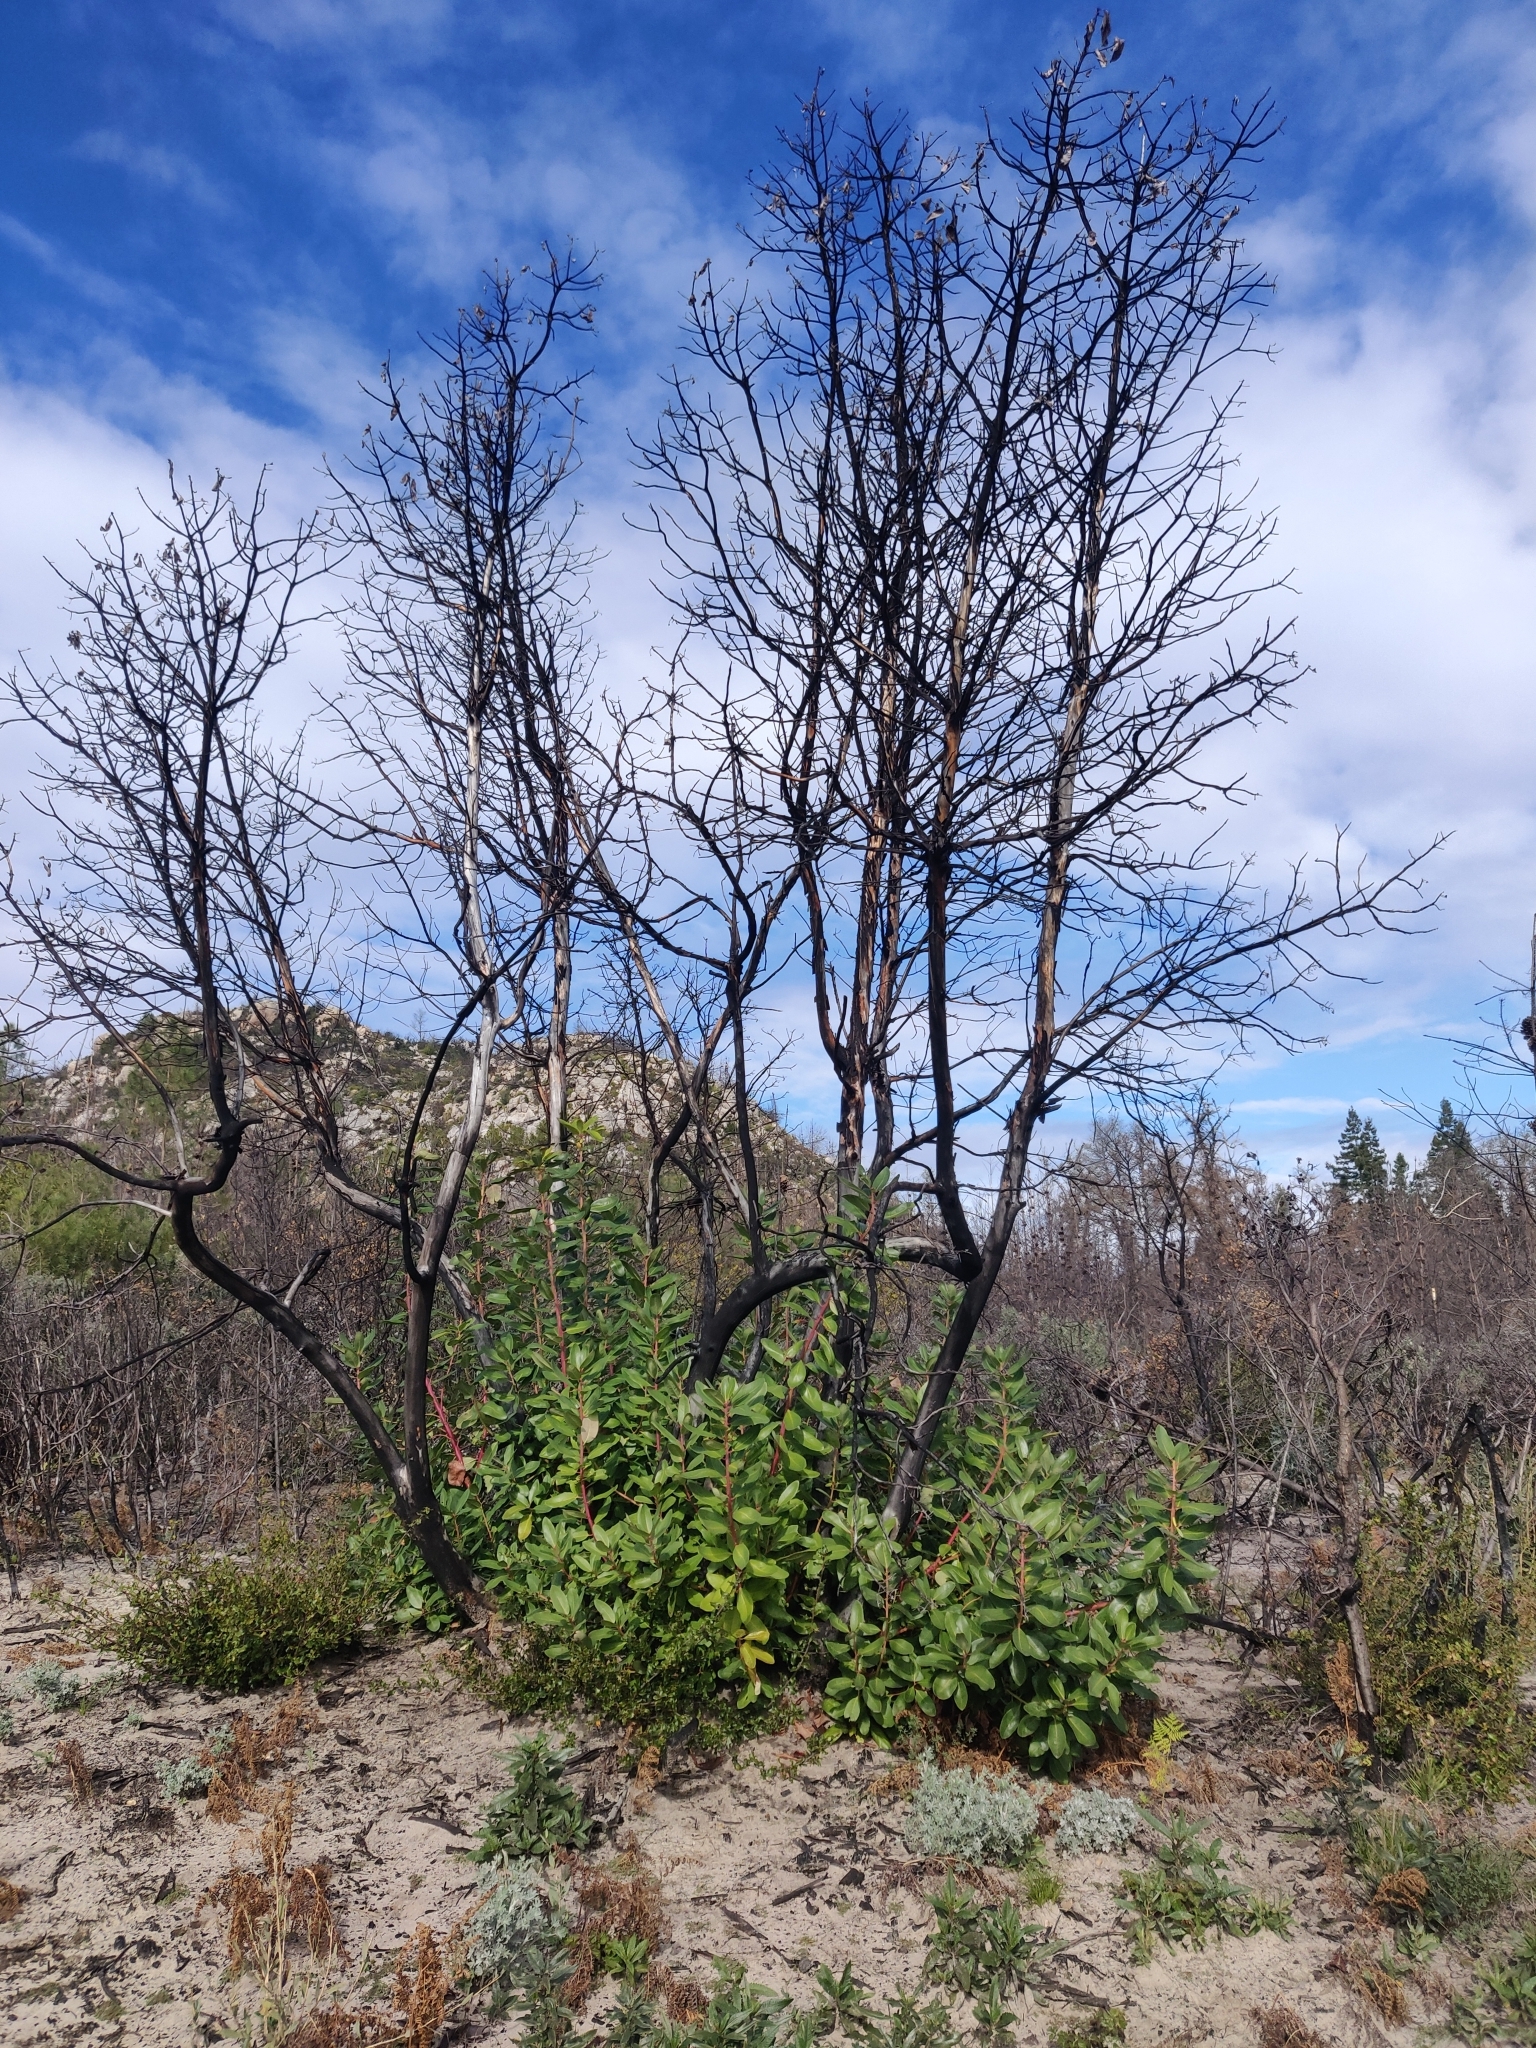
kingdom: Plantae
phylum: Tracheophyta
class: Magnoliopsida
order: Ericales
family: Ericaceae
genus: Arbutus
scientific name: Arbutus menziesii
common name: Pacific madrone
